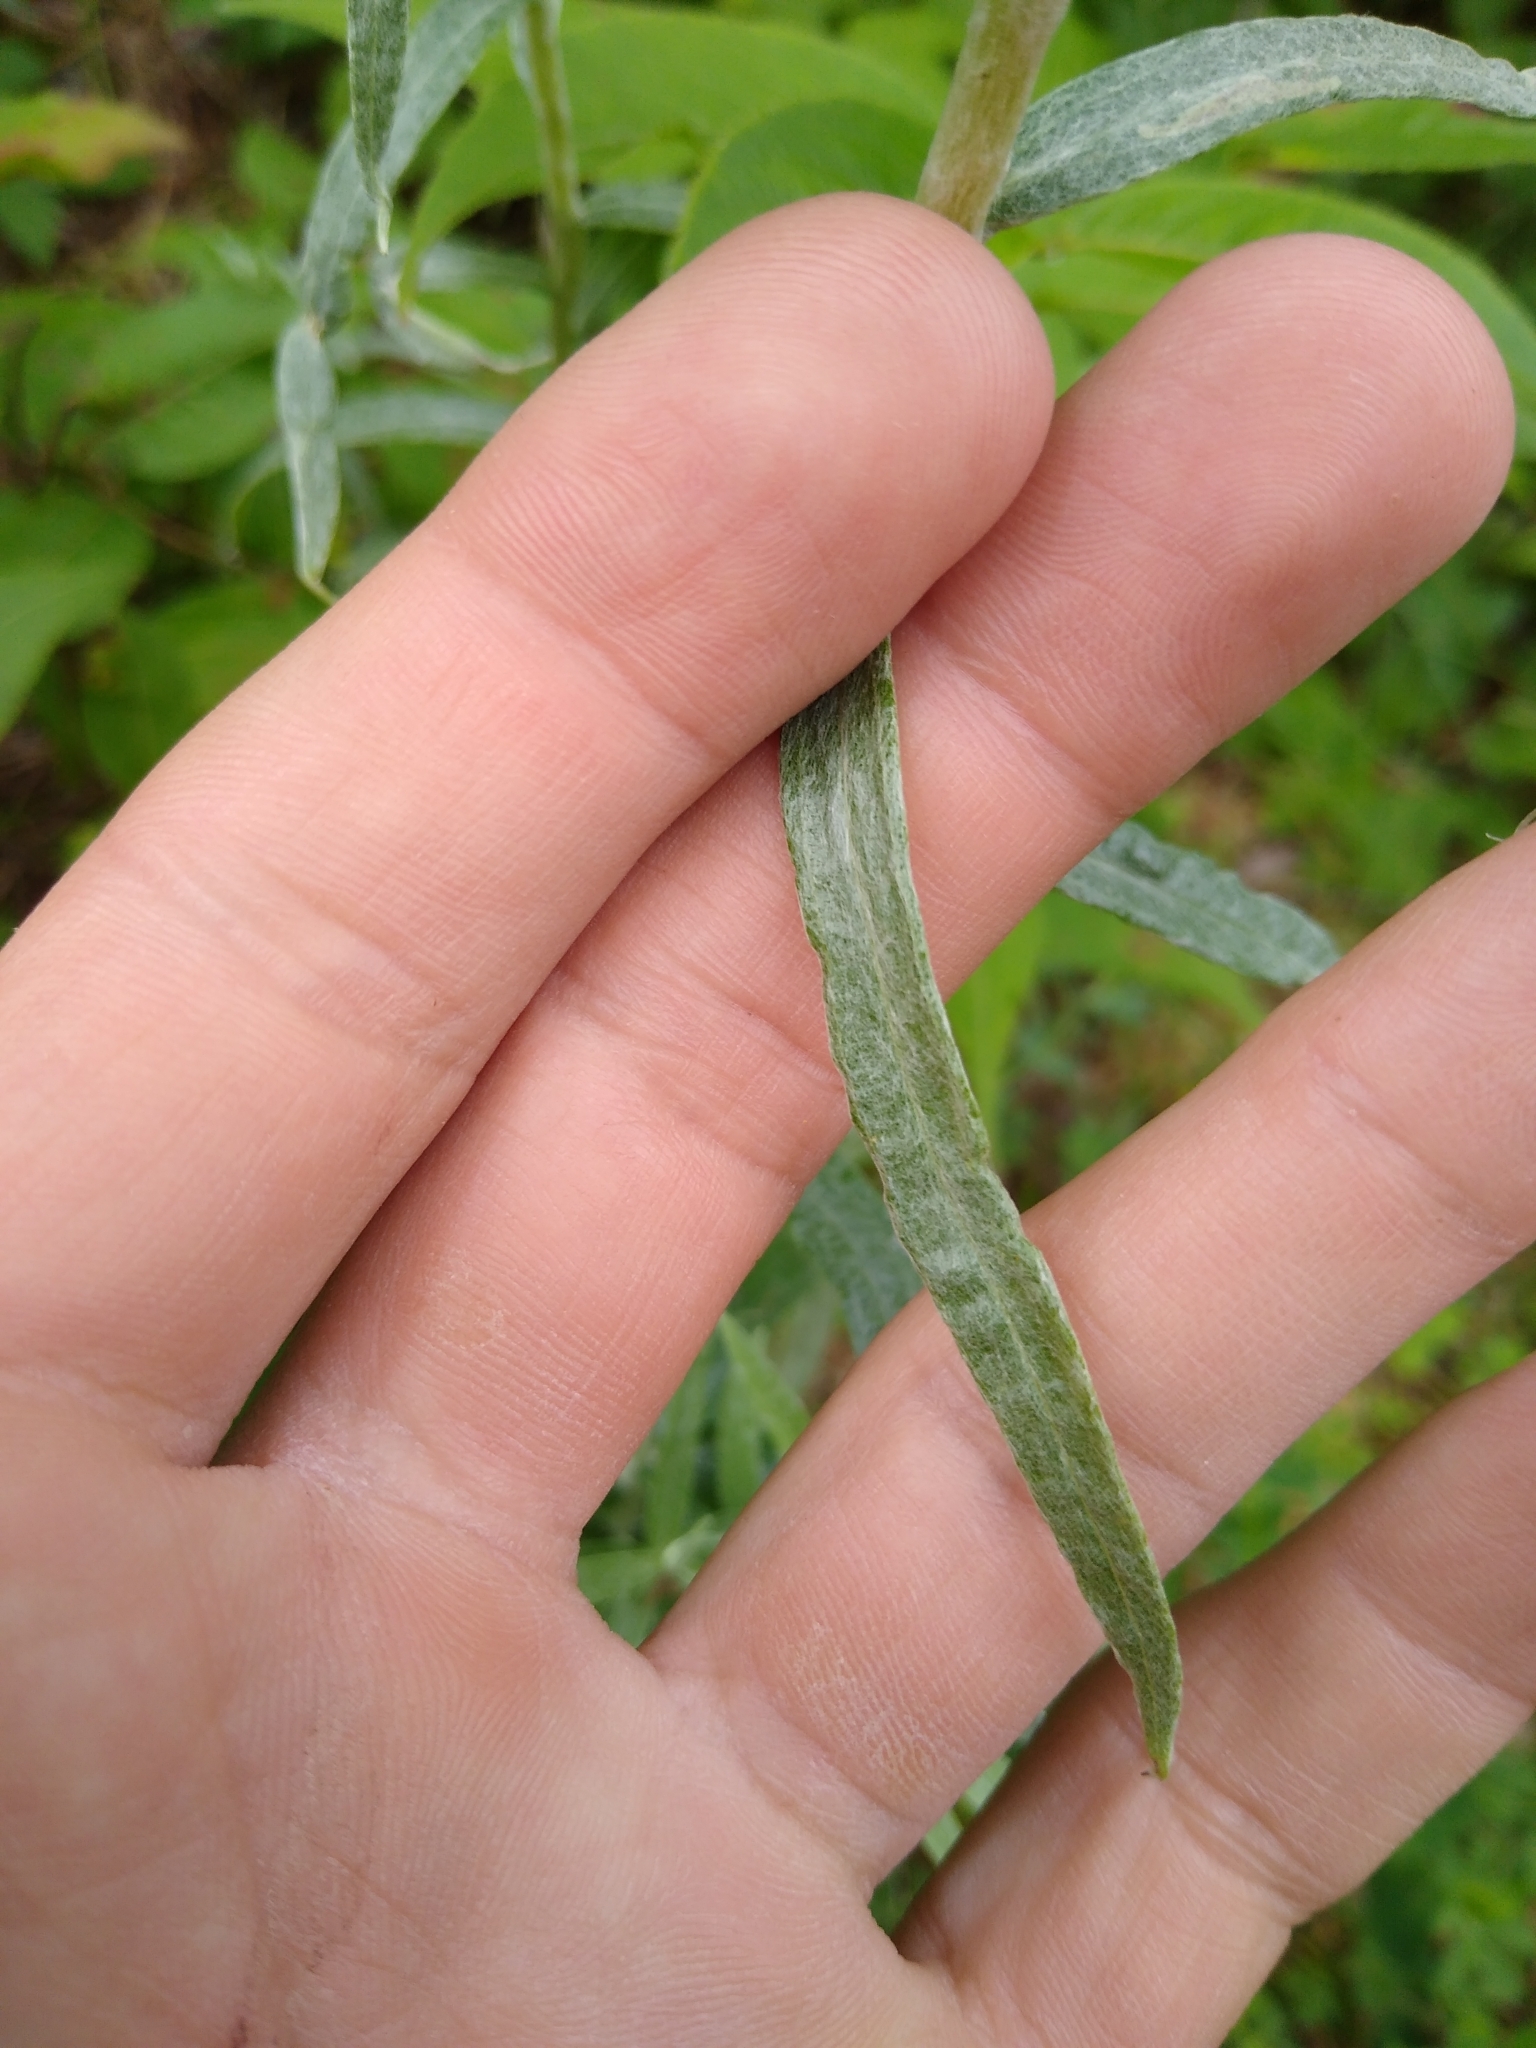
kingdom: Plantae
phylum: Tracheophyta
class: Magnoliopsida
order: Asterales
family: Asteraceae
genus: Anaphalis
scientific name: Anaphalis margaritacea
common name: Pearly everlasting
